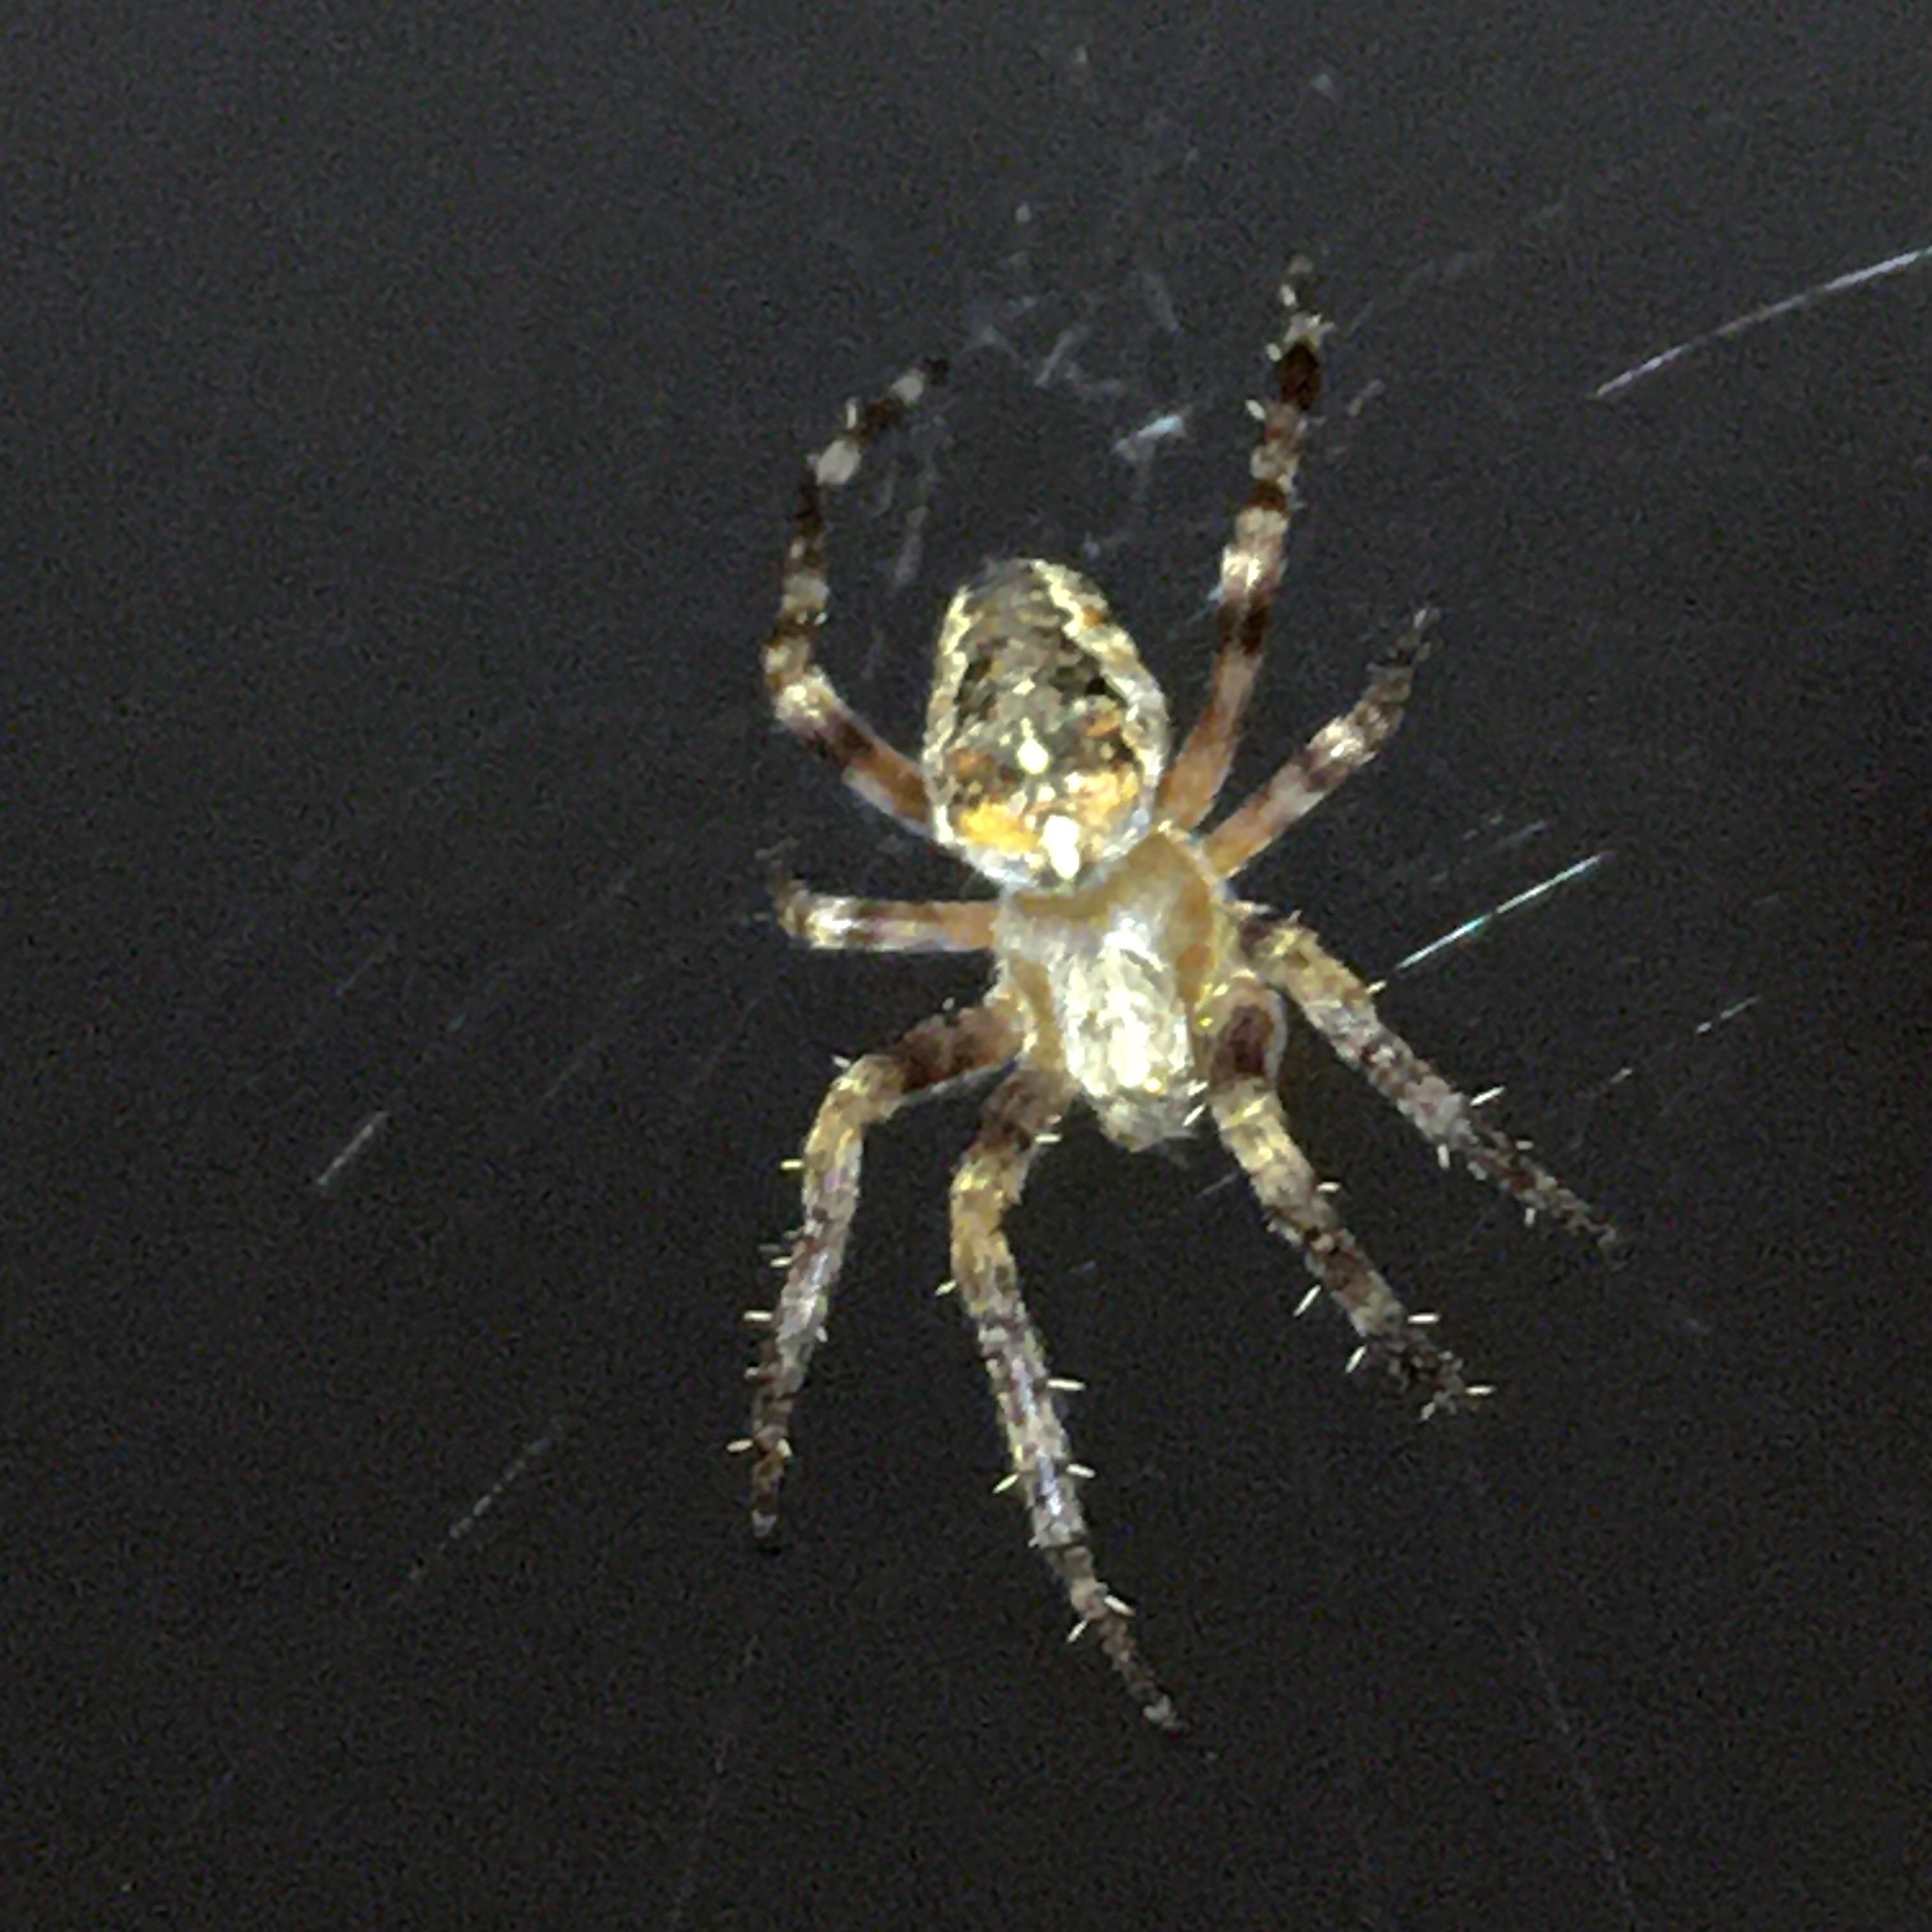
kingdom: Animalia
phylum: Arthropoda
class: Arachnida
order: Araneae
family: Araneidae
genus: Araneus
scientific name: Araneus diadematus
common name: Cross orbweaver
